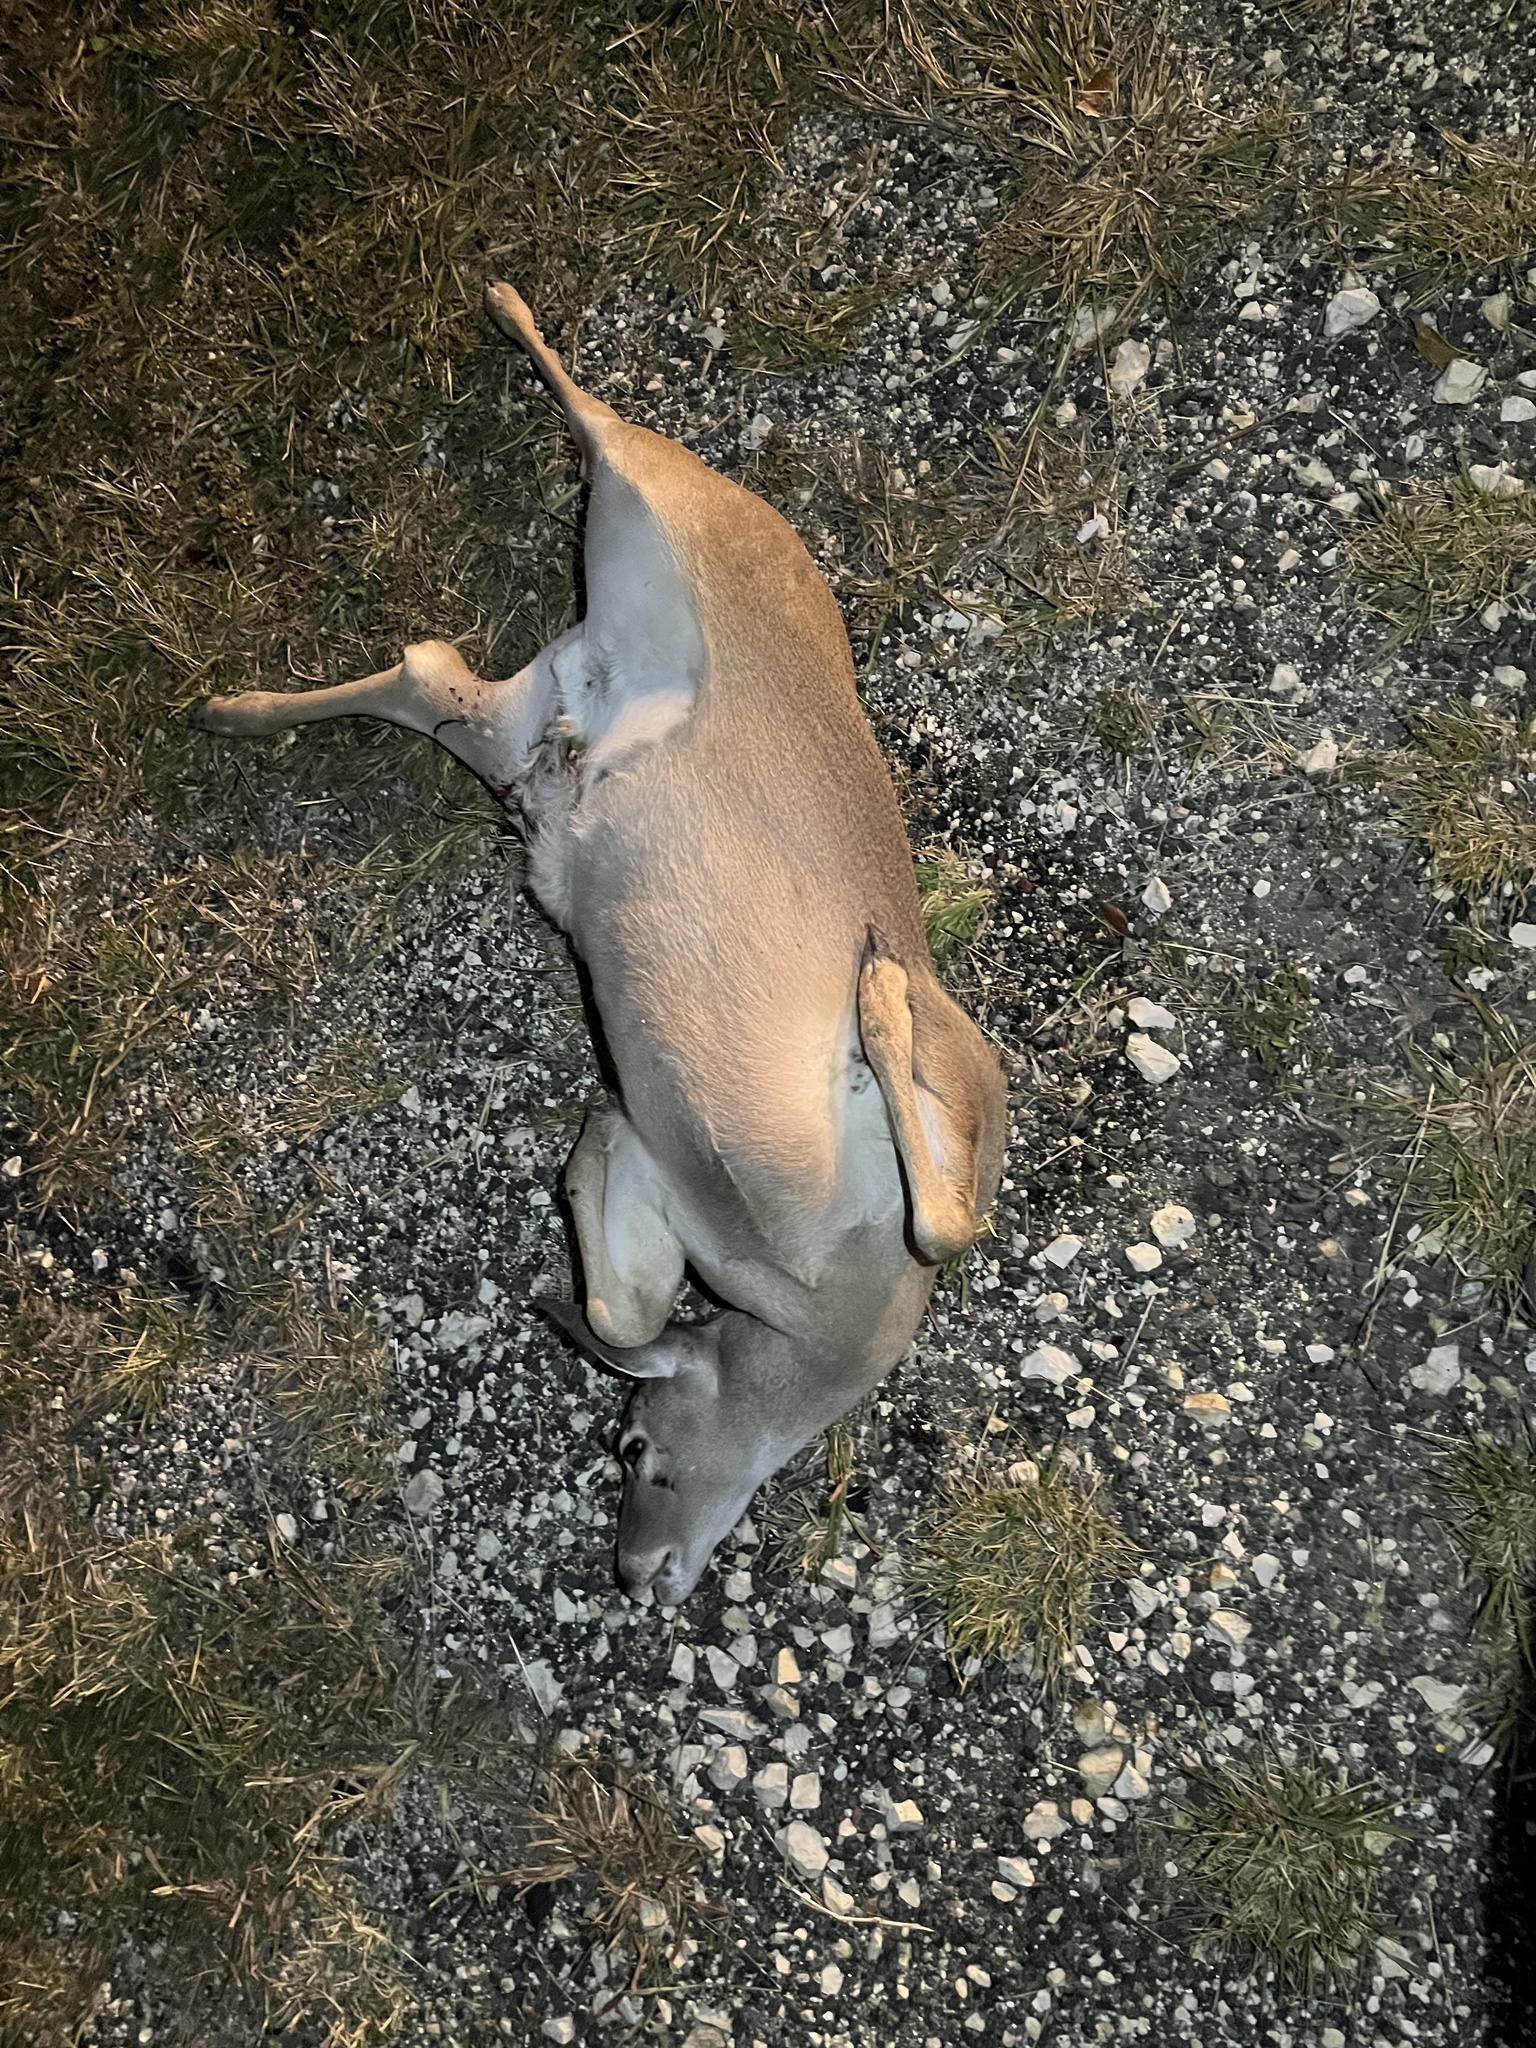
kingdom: Animalia
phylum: Chordata
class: Mammalia
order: Artiodactyla
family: Cervidae
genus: Odocoileus
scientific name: Odocoileus virginianus
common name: White-tailed deer
